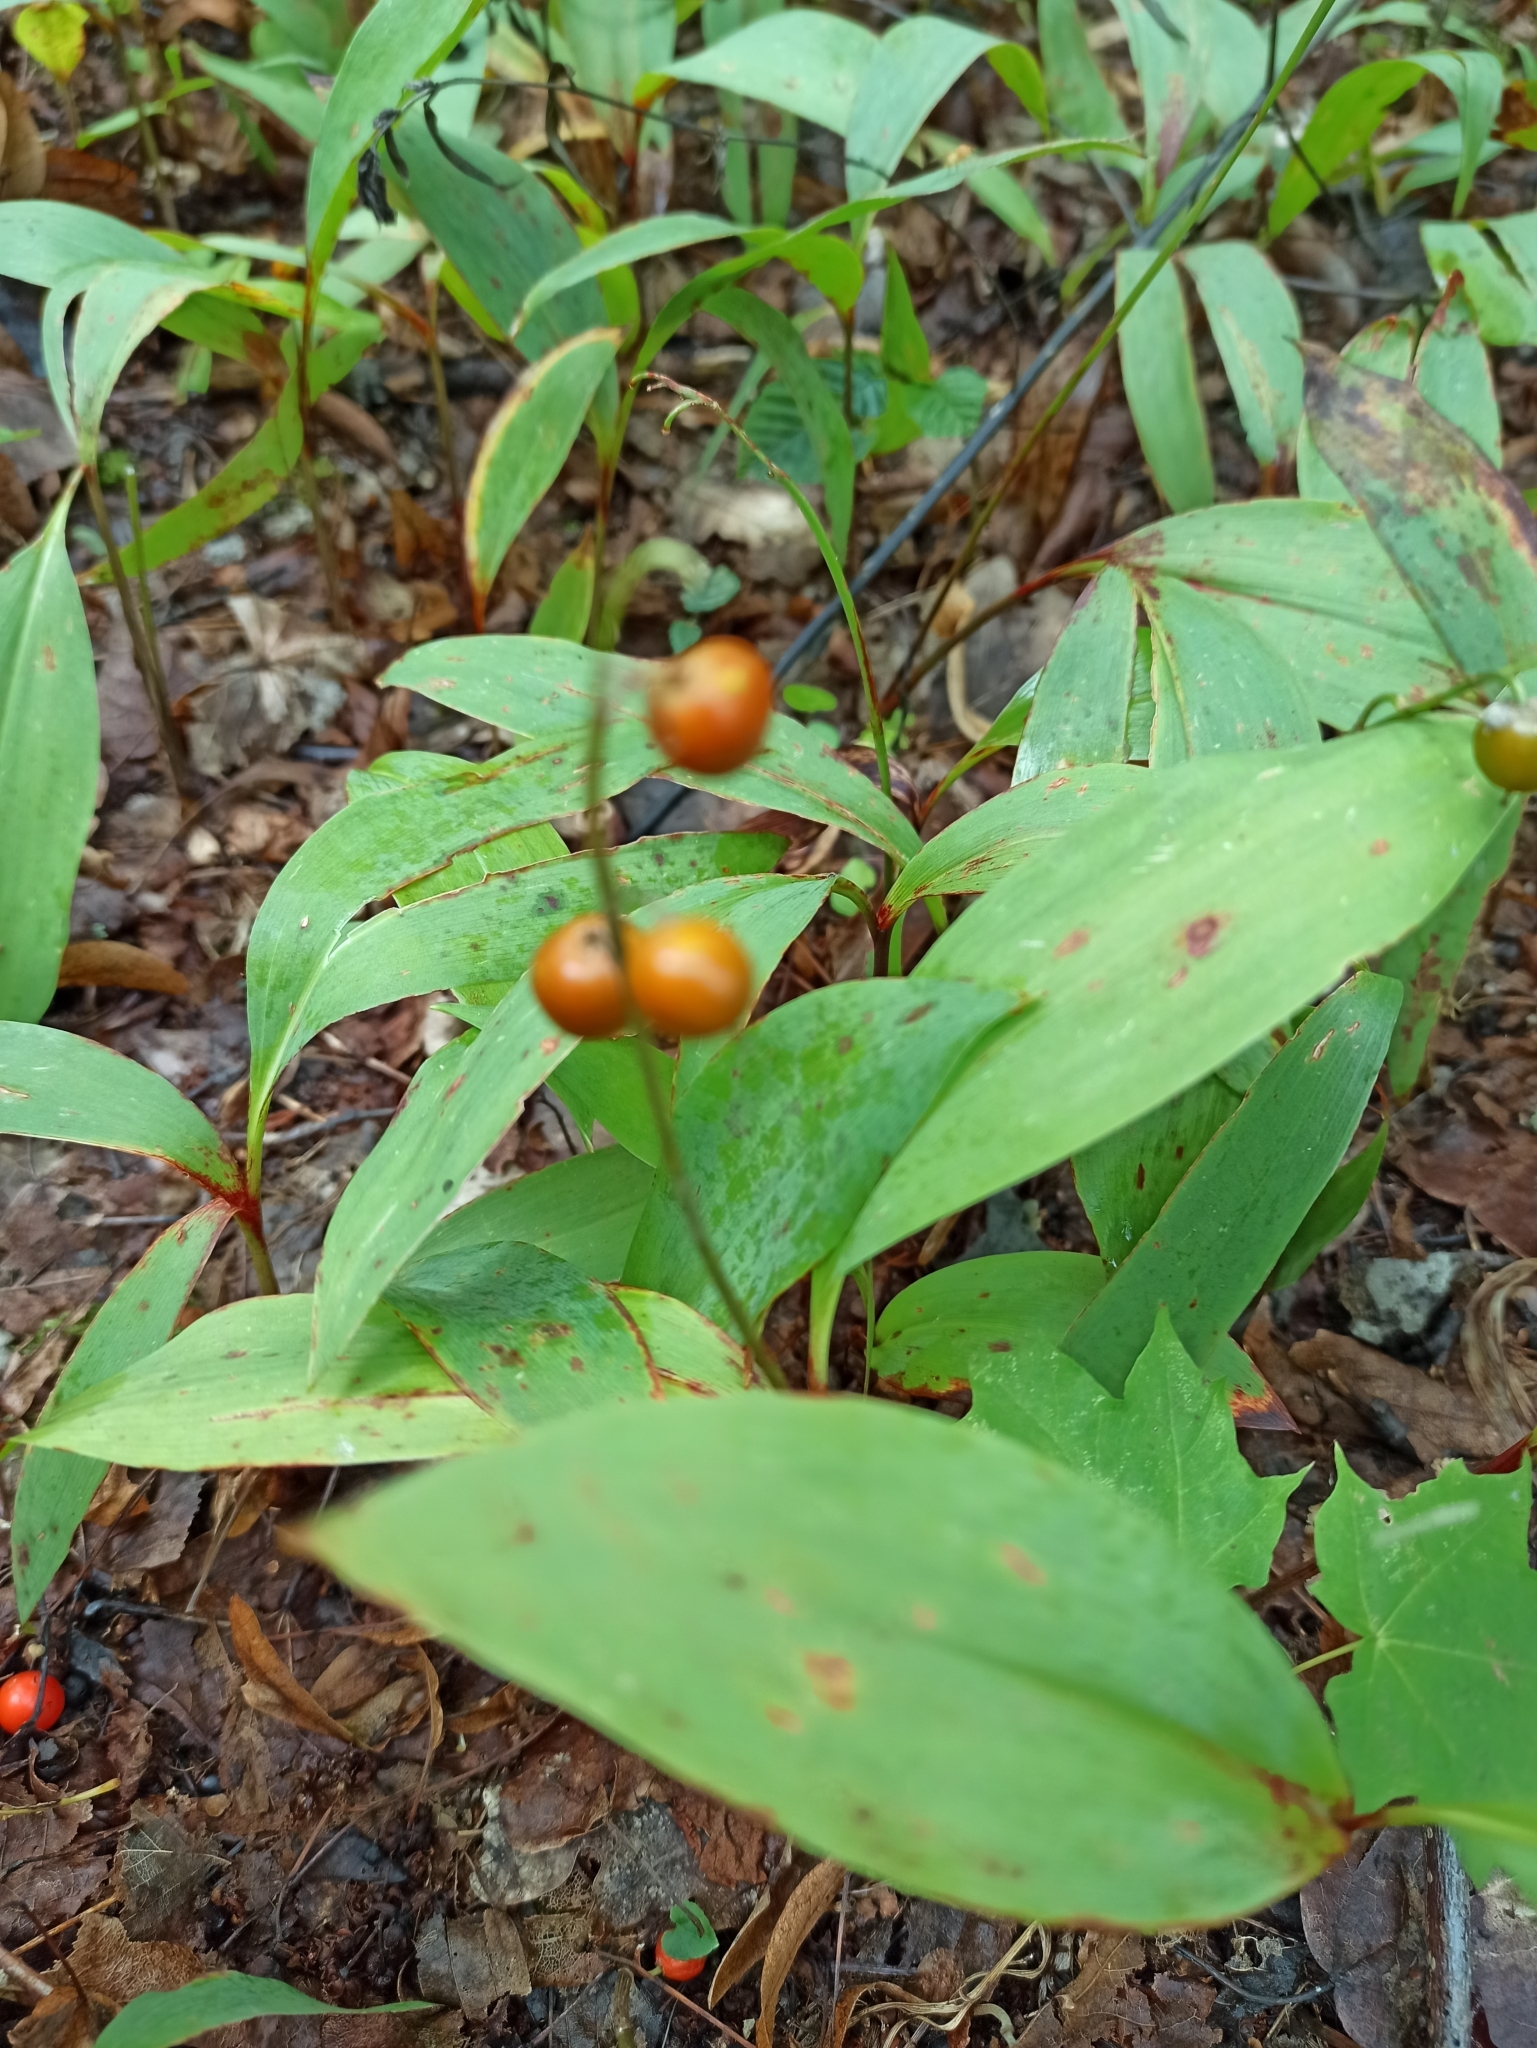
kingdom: Plantae
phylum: Tracheophyta
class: Liliopsida
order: Asparagales
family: Asparagaceae
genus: Convallaria
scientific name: Convallaria majalis
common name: Lily-of-the-valley
